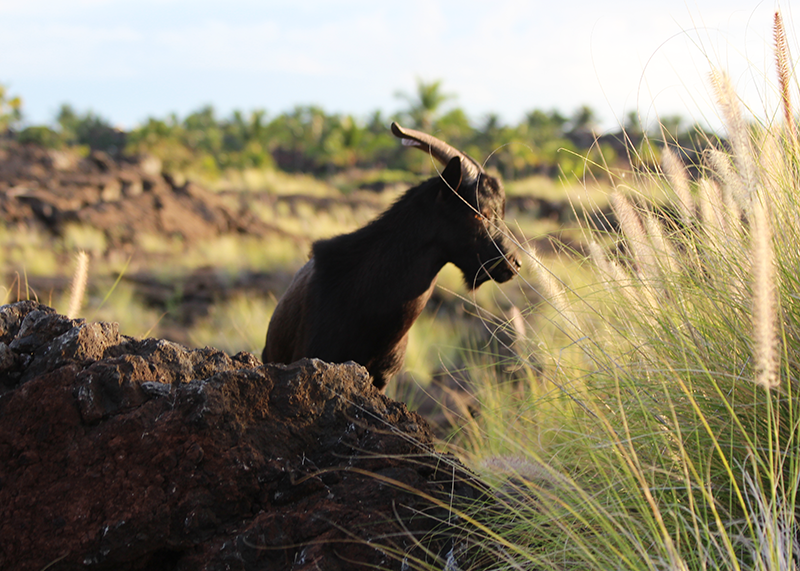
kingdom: Animalia
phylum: Chordata
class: Mammalia
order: Artiodactyla
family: Bovidae
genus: Capra
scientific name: Capra hircus
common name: Domestic goat
